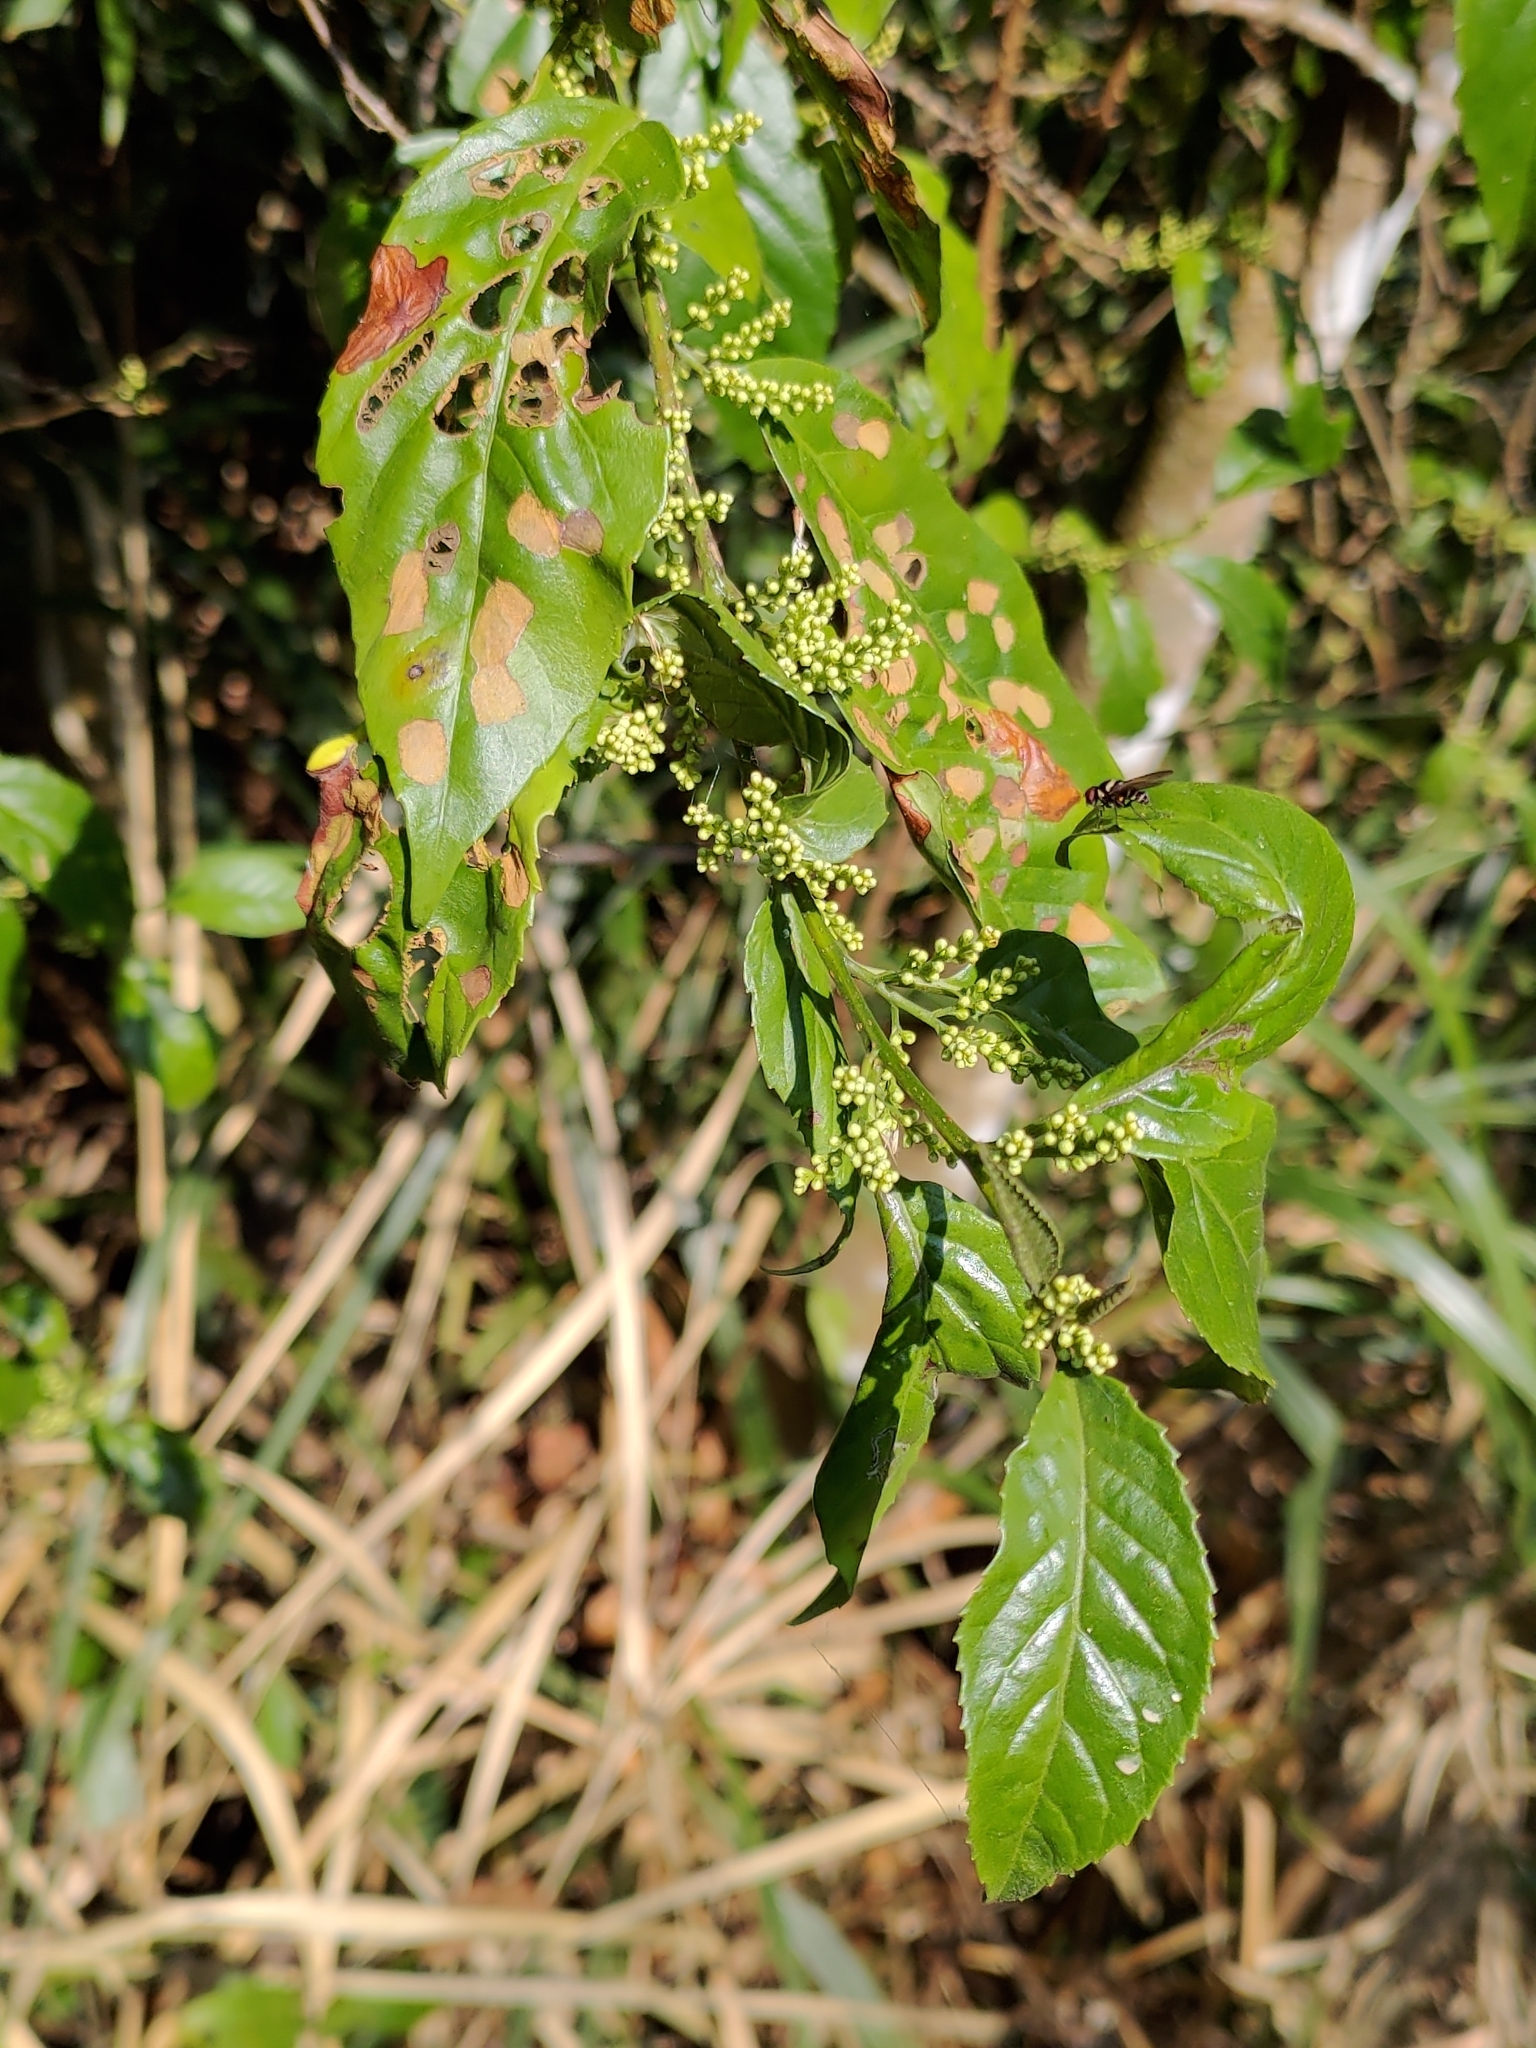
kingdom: Plantae
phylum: Tracheophyta
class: Magnoliopsida
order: Ericales
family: Primulaceae
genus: Maesa
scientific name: Maesa perlaria
